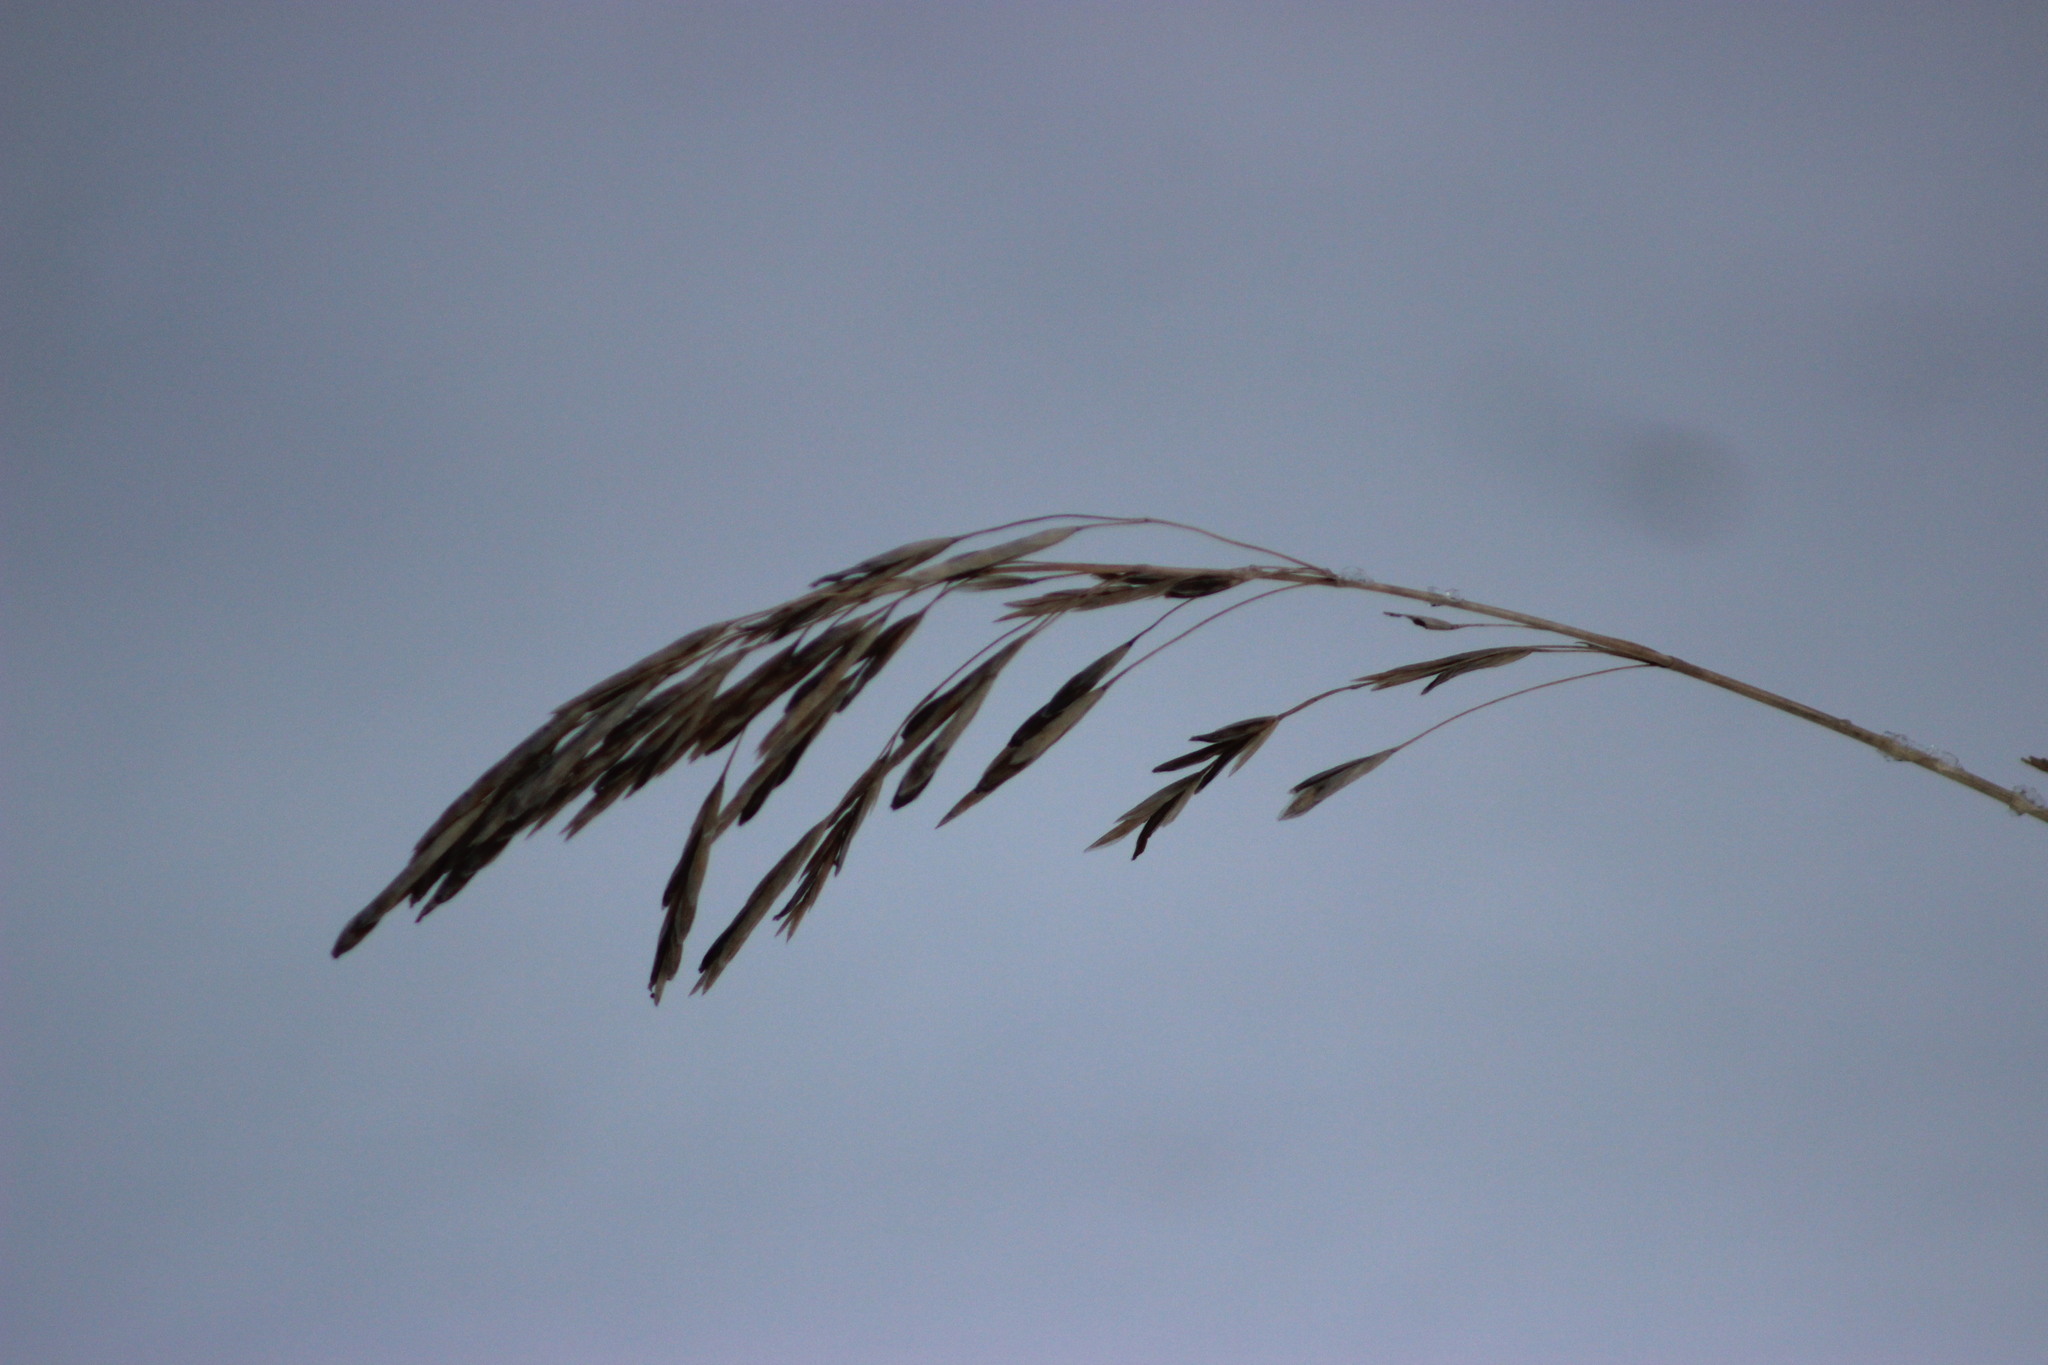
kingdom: Plantae
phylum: Tracheophyta
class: Liliopsida
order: Poales
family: Poaceae
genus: Bromus
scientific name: Bromus inermis
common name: Smooth brome
